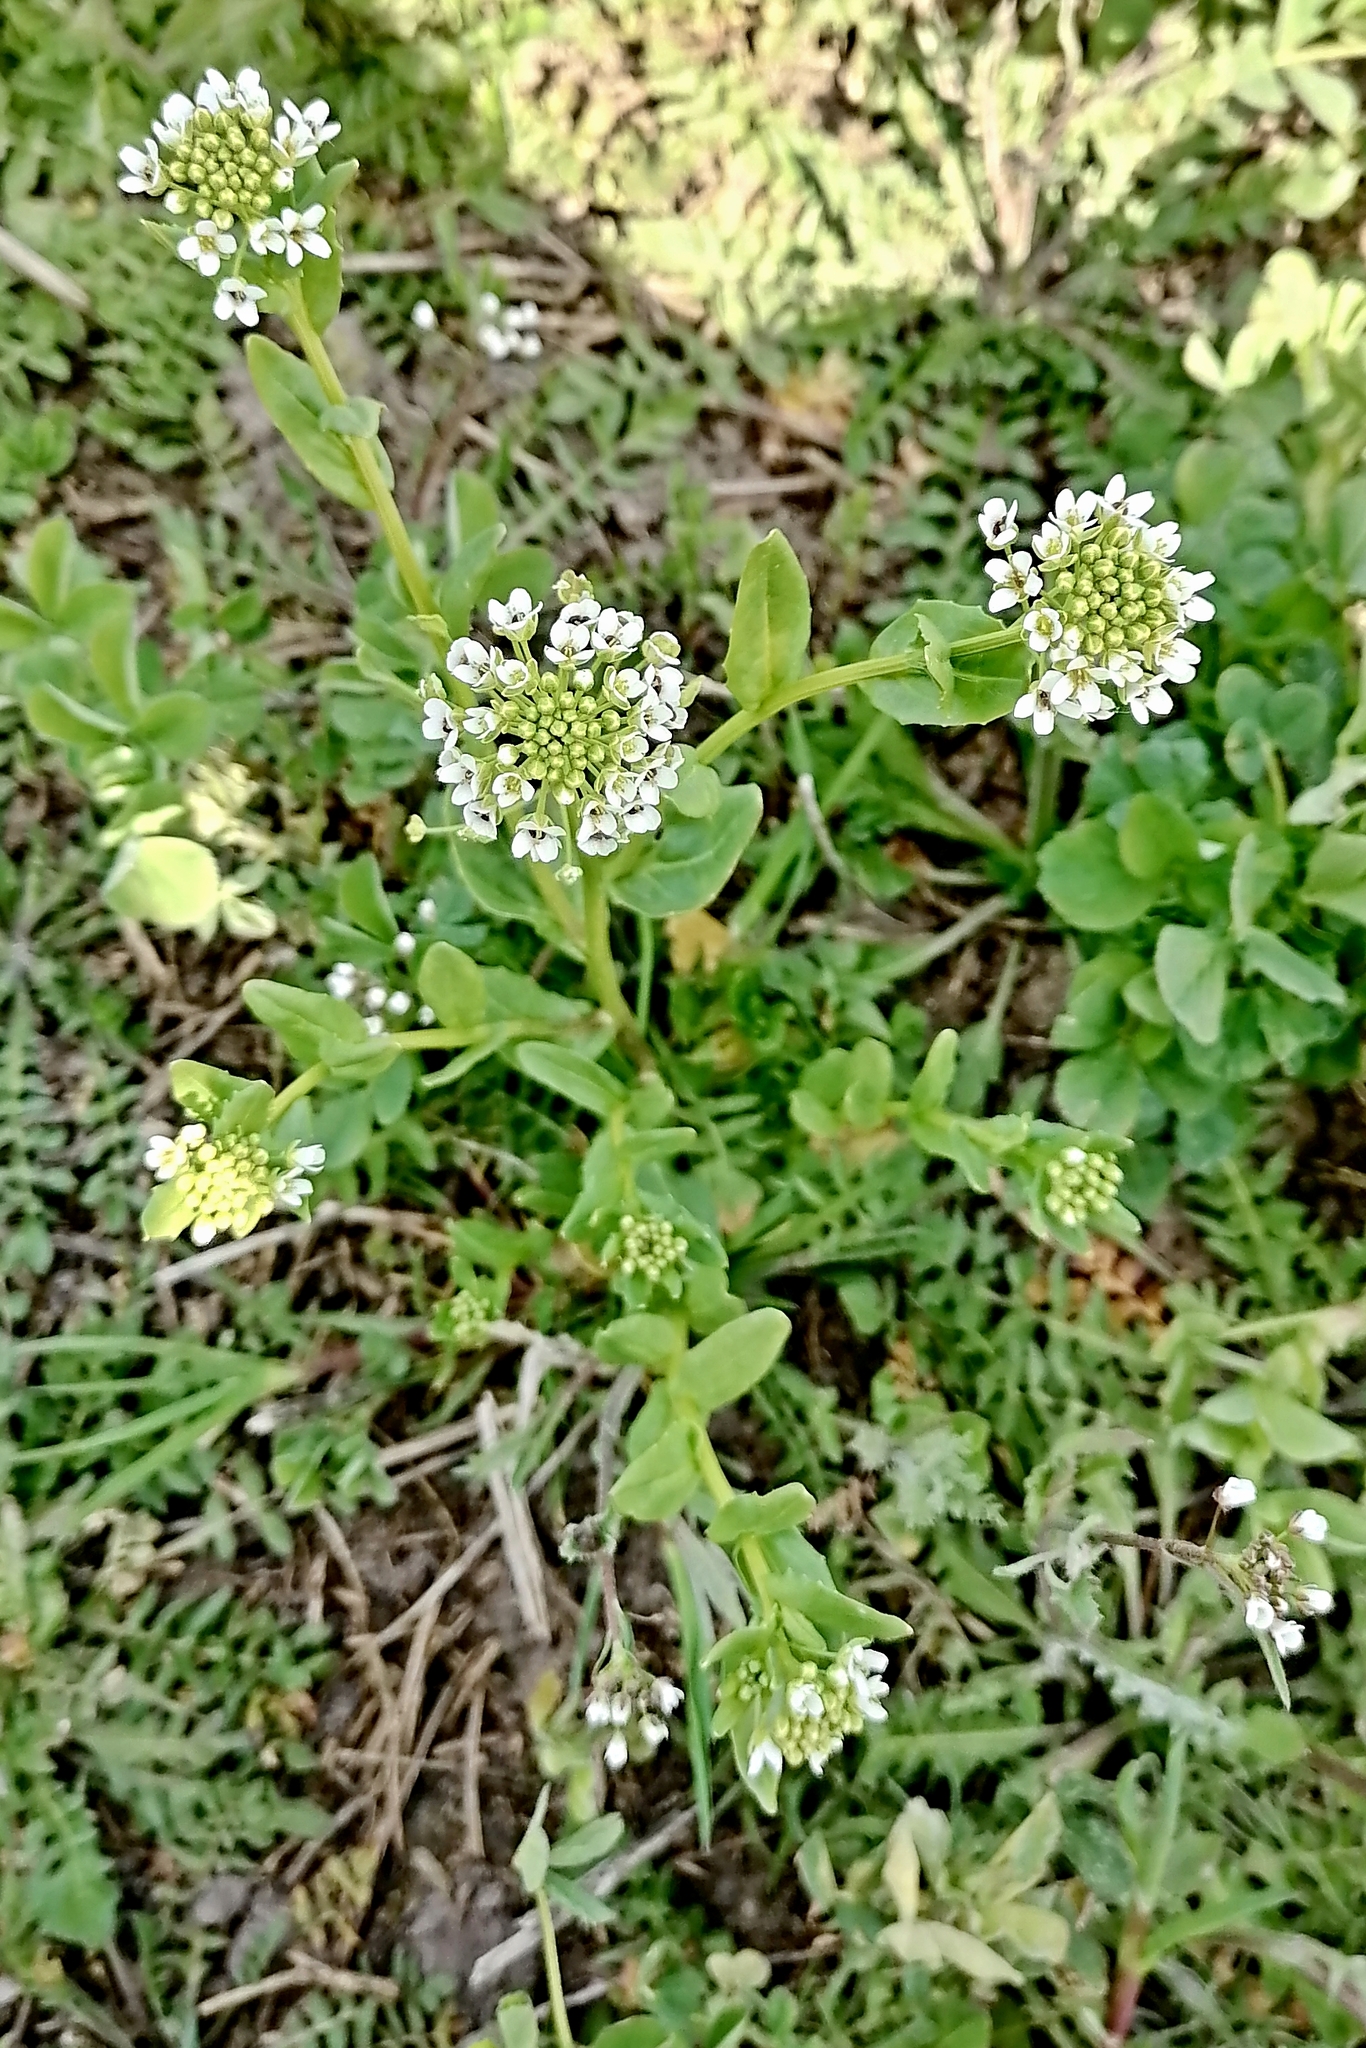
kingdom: Plantae
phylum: Tracheophyta
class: Magnoliopsida
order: Brassicales
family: Brassicaceae
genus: Thlaspi
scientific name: Thlaspi arvense
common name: Field pennycress
